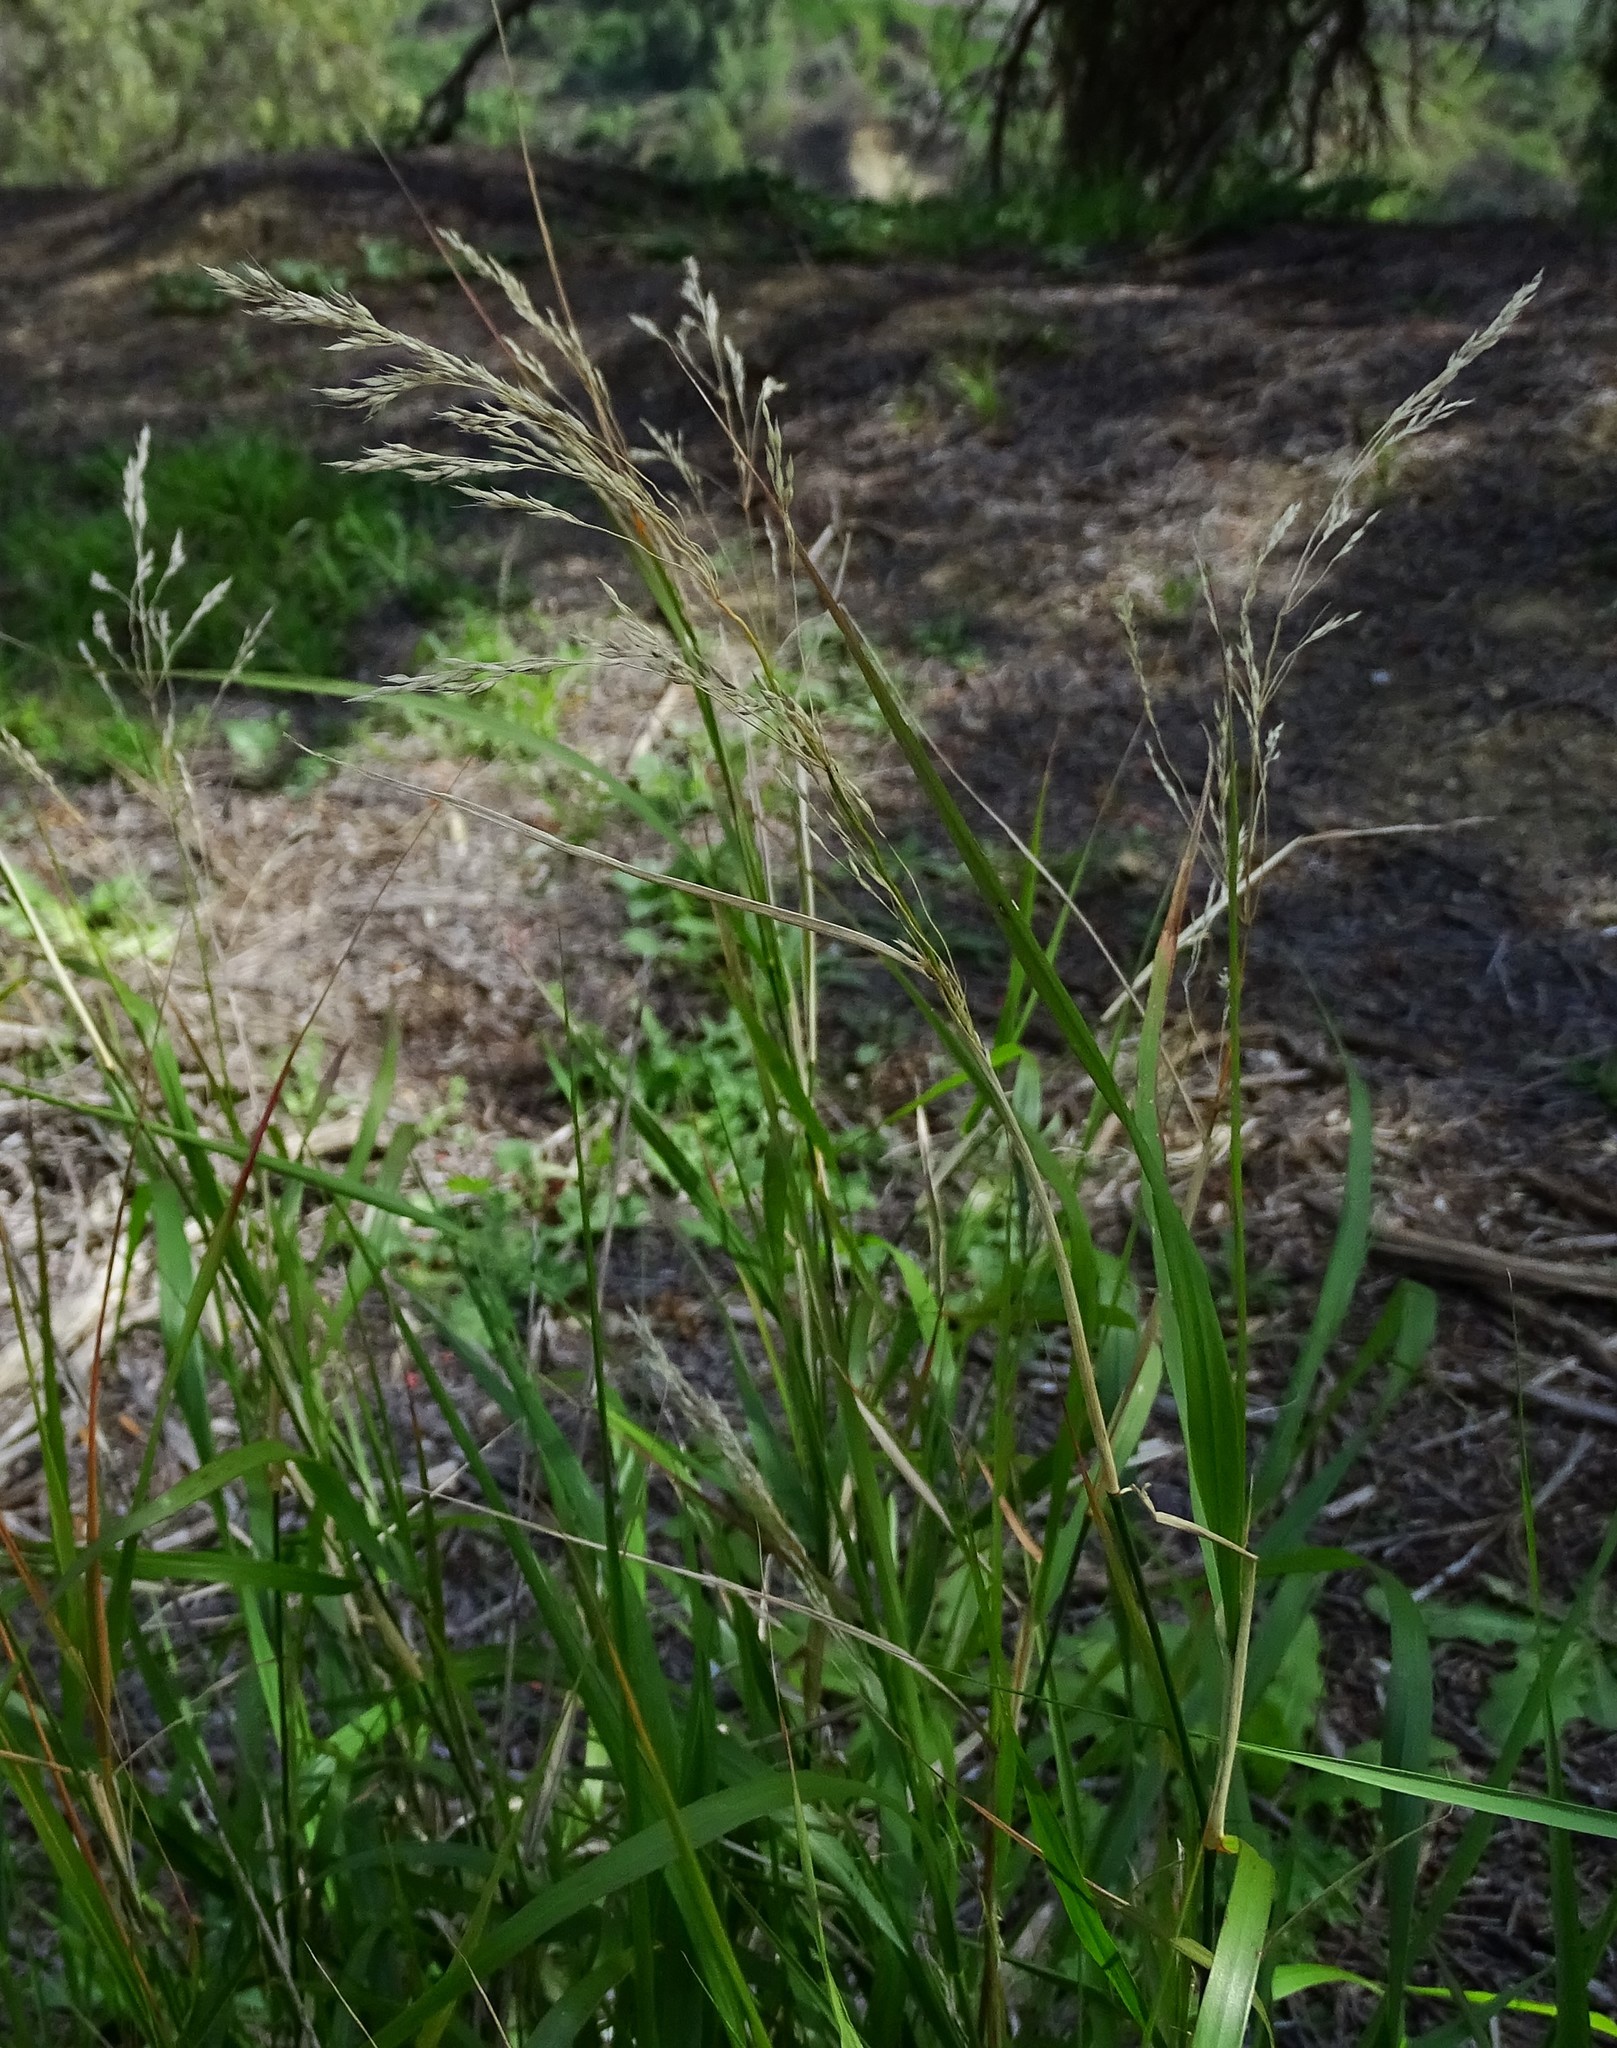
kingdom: Plantae
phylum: Tracheophyta
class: Liliopsida
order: Poales
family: Poaceae
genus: Oloptum
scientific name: Oloptum miliaceum
